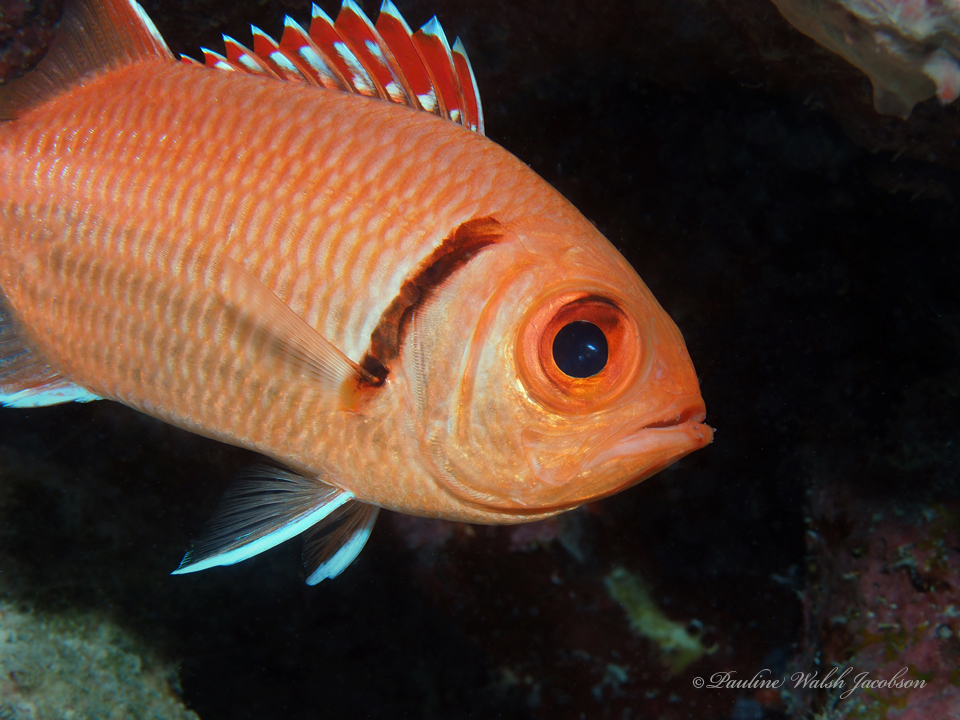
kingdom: Animalia
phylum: Chordata
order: Beryciformes
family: Holocentridae
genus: Myripristis
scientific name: Myripristis jacobus
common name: Blackbar soldierfish
